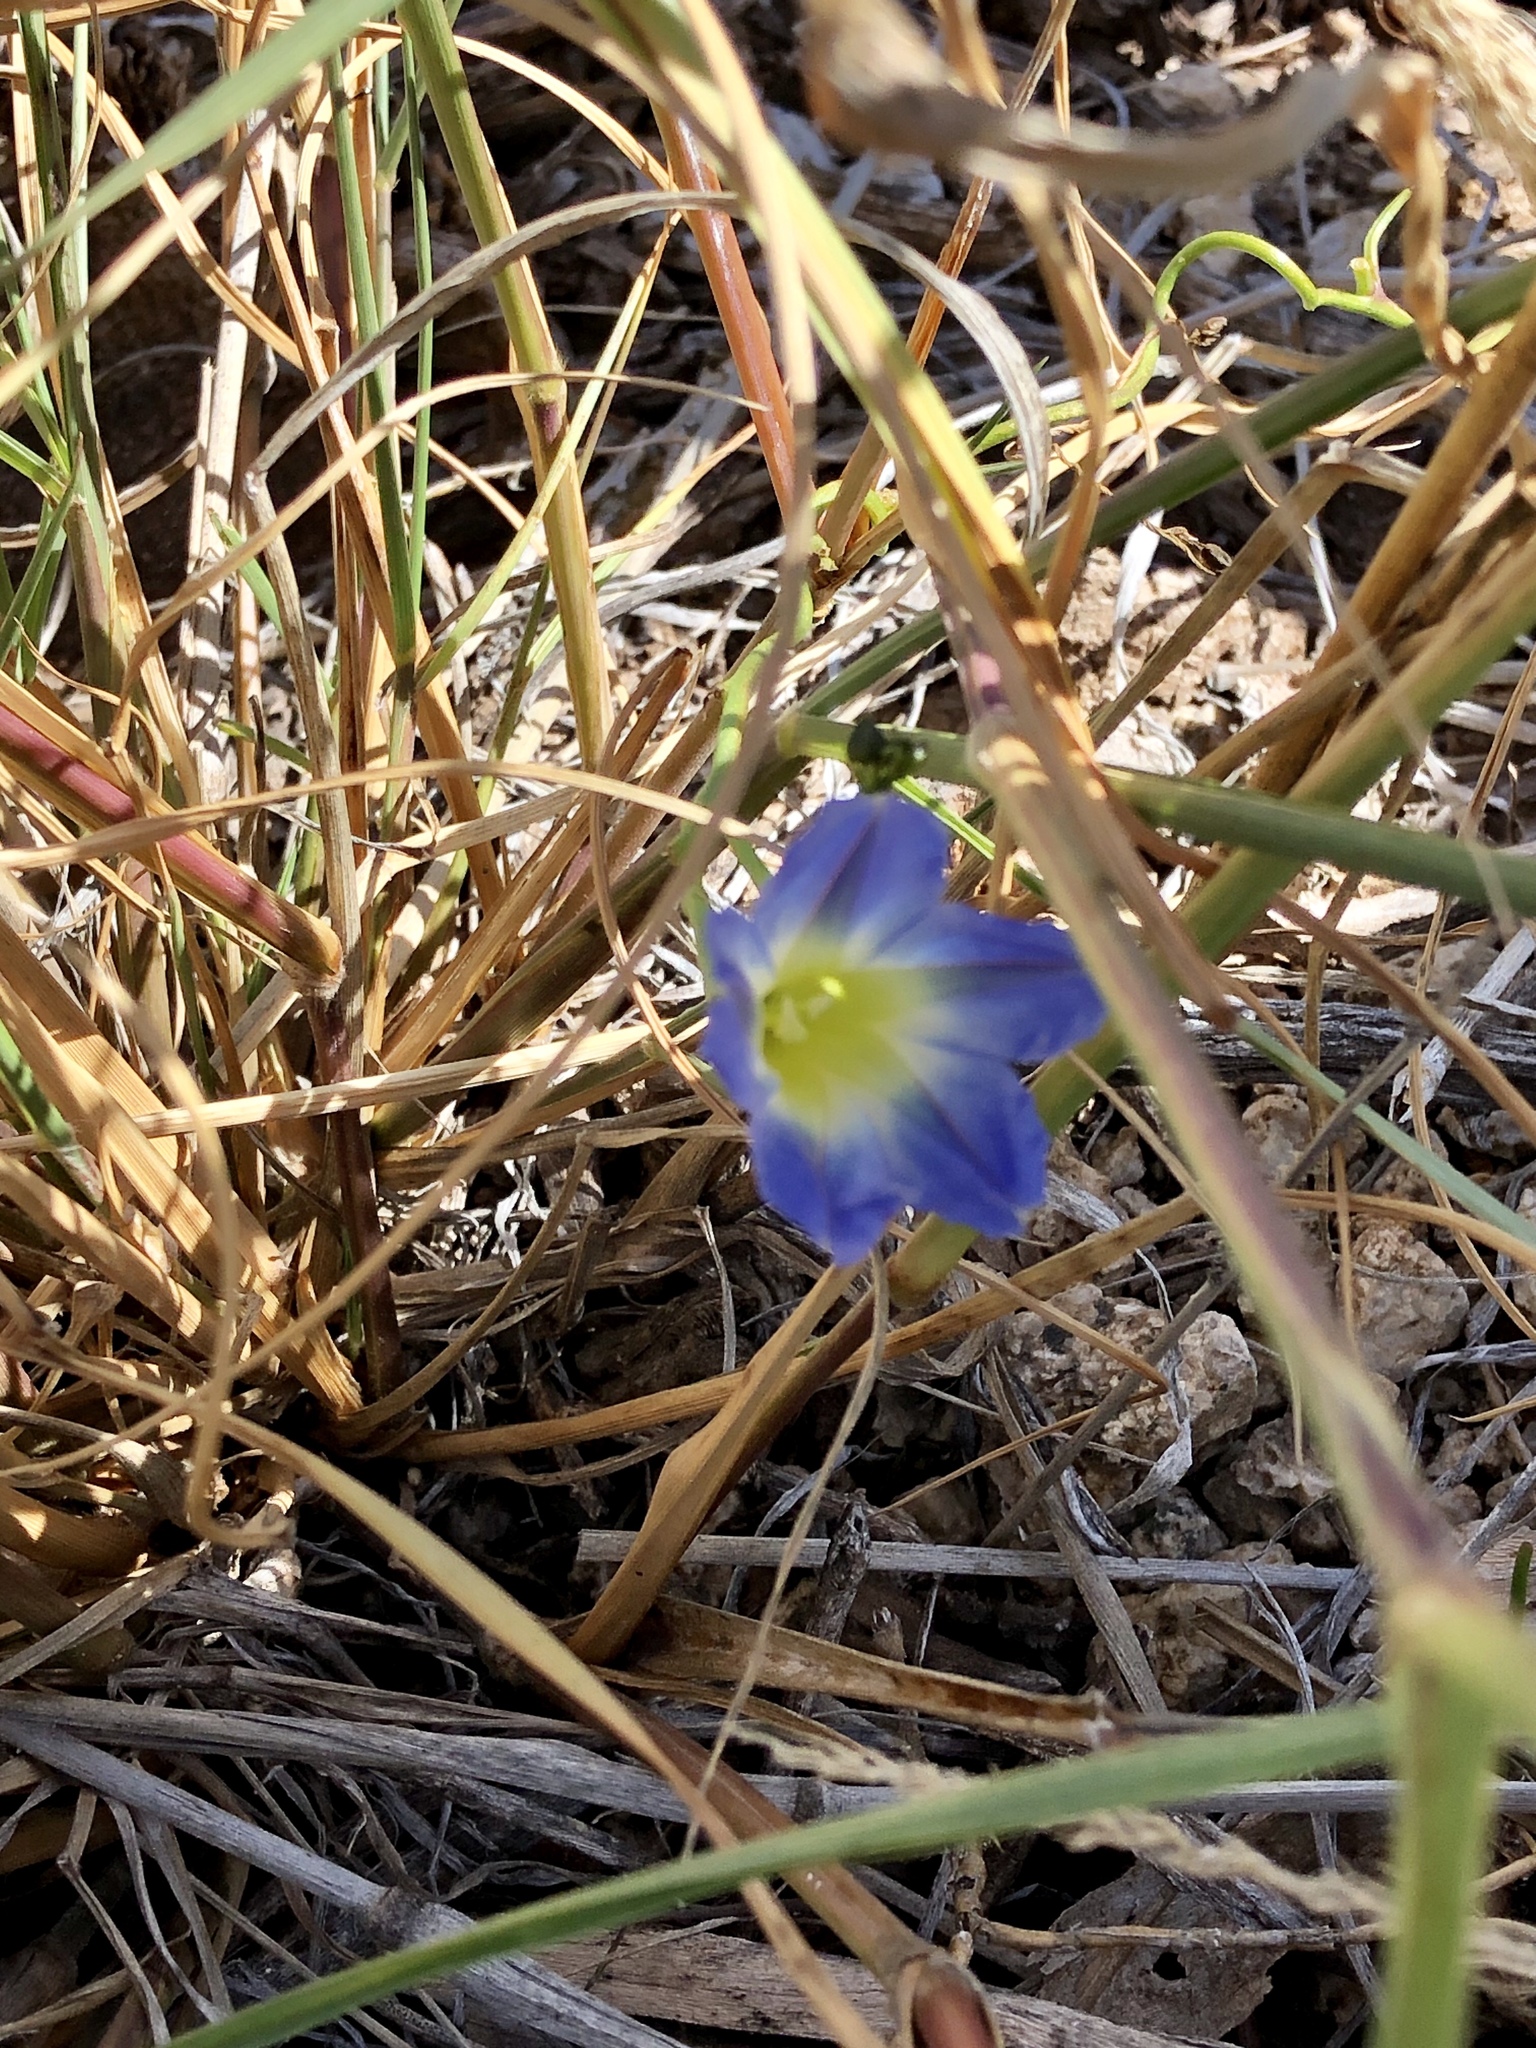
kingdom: Plantae
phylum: Tracheophyta
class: Magnoliopsida
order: Solanales
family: Convolvulaceae
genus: Ipomoea
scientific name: Ipomoea cardiophylla
